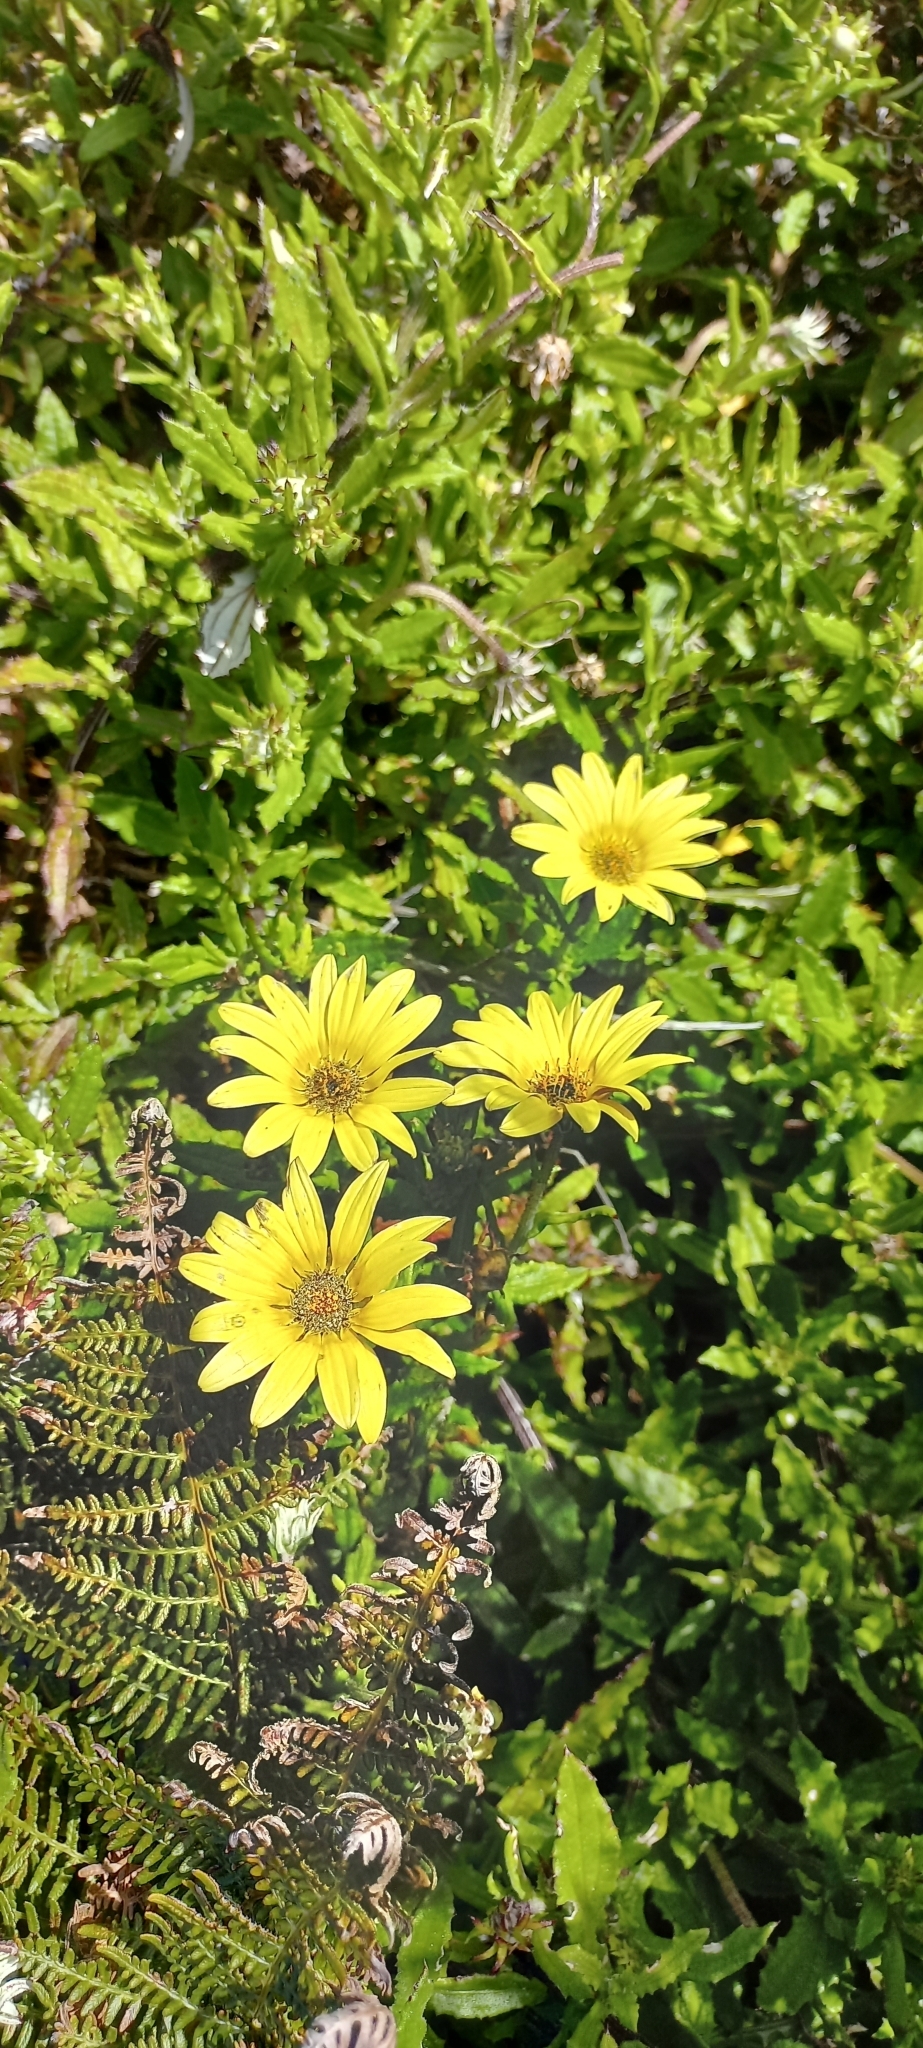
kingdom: Plantae
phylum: Tracheophyta
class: Magnoliopsida
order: Asterales
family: Asteraceae
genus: Arctotis
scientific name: Arctotis scabra
